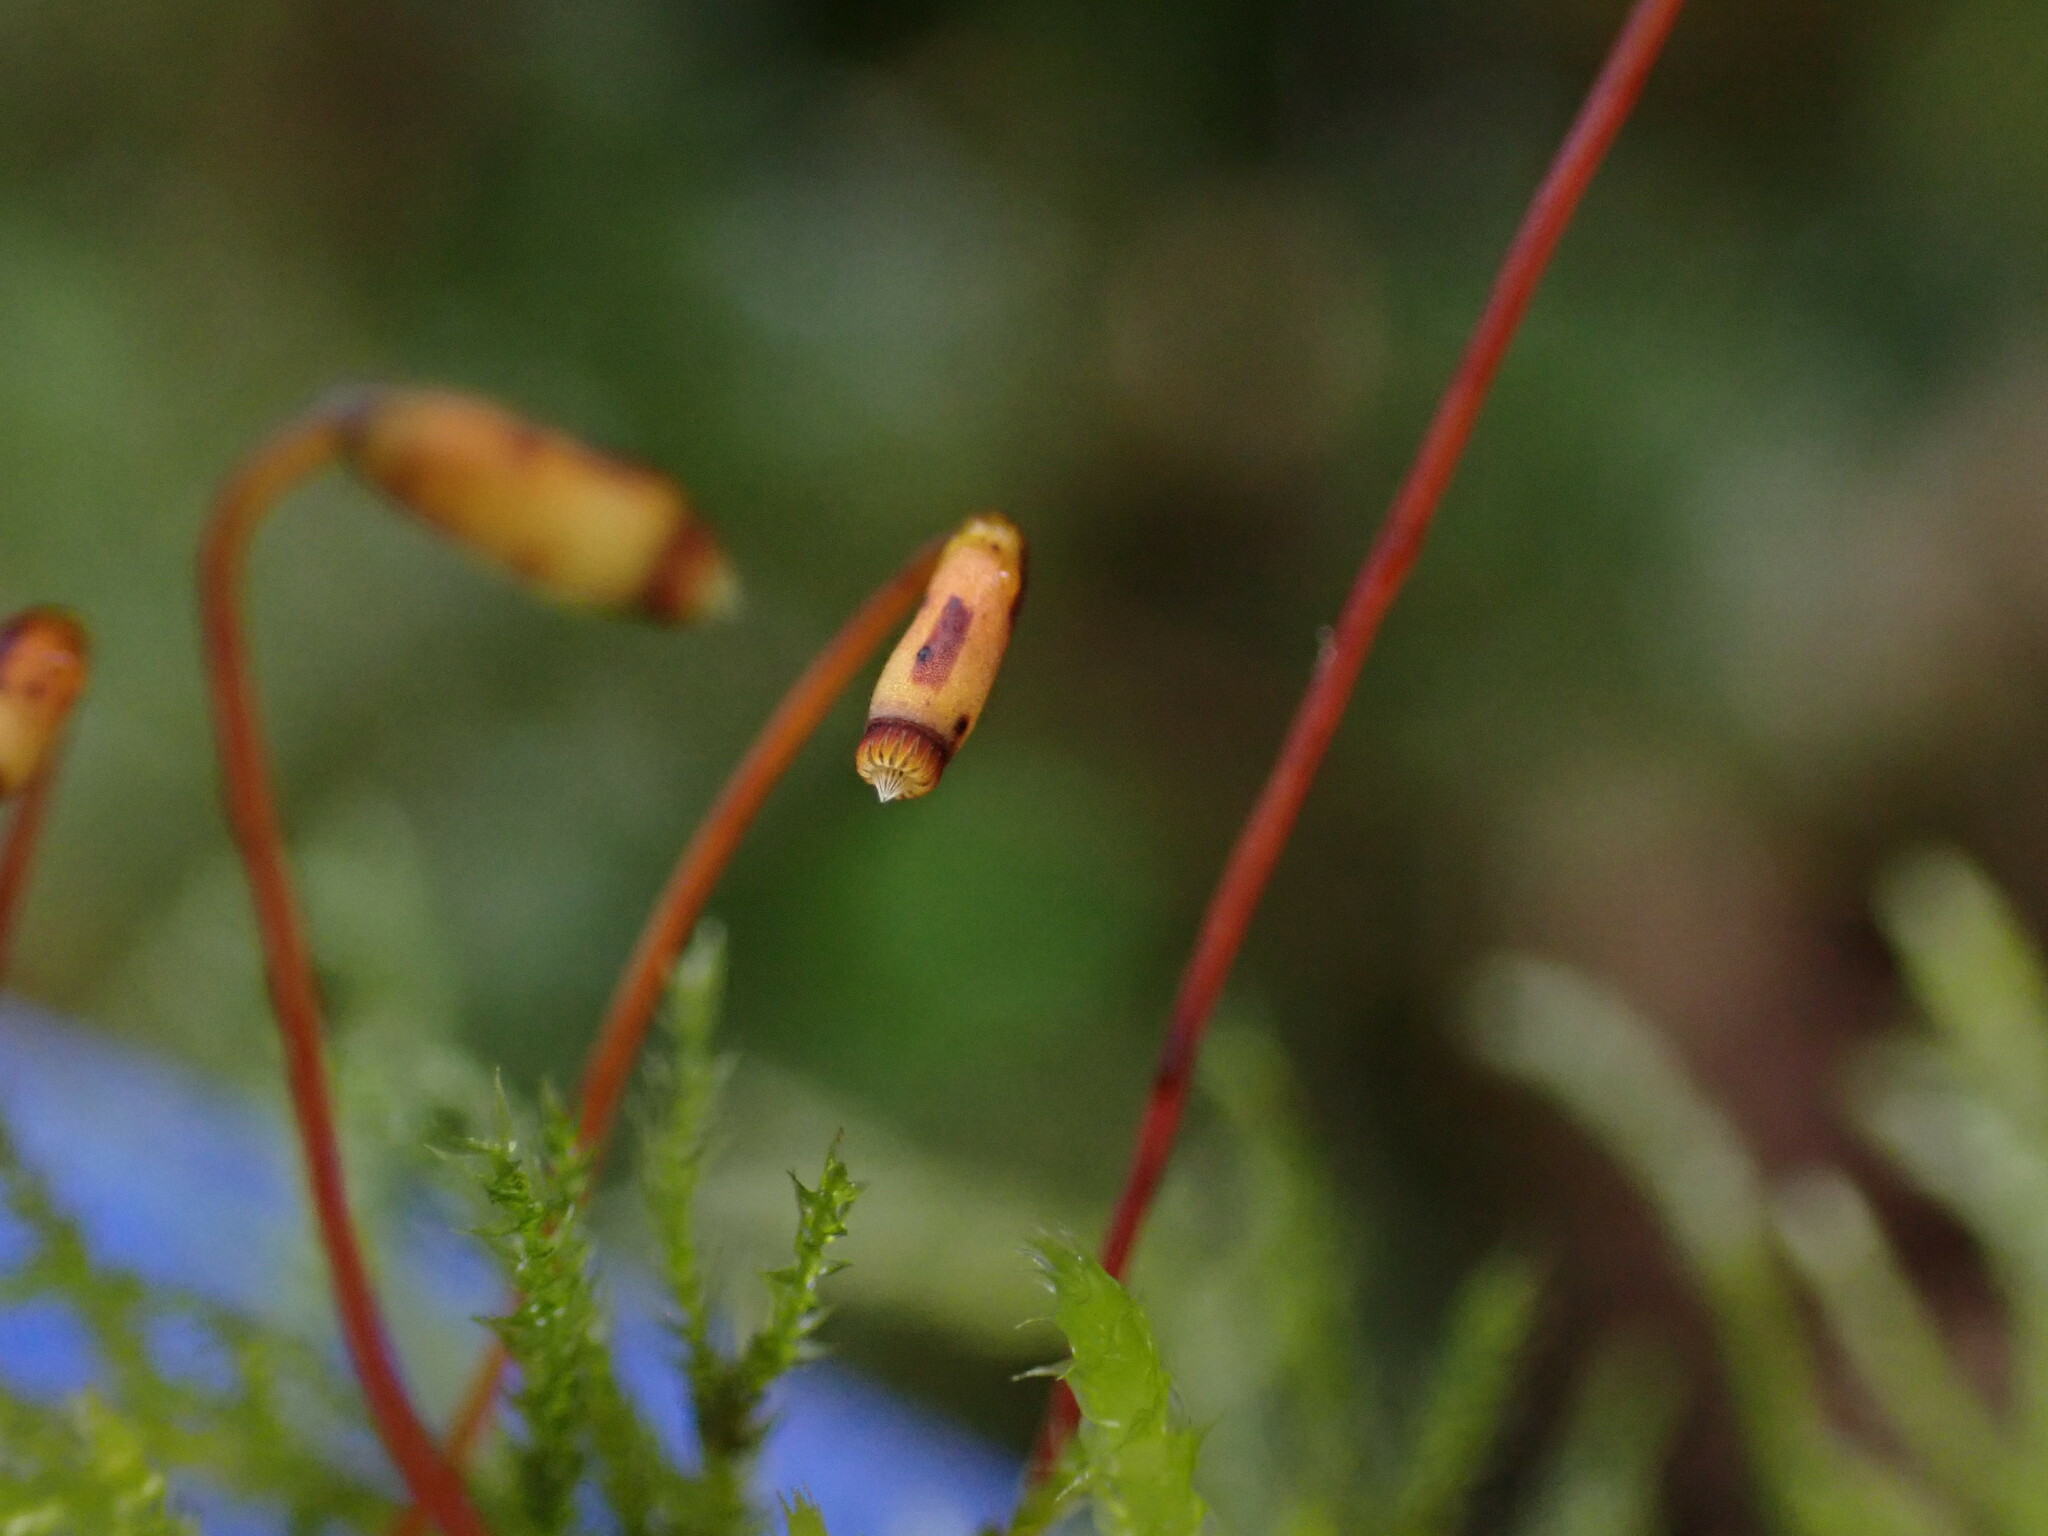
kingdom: Plantae
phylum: Bryophyta
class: Bryopsida
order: Hypnales
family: Brachytheciaceae
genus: Kindbergia
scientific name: Kindbergia praelonga
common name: Slender beaked moss
